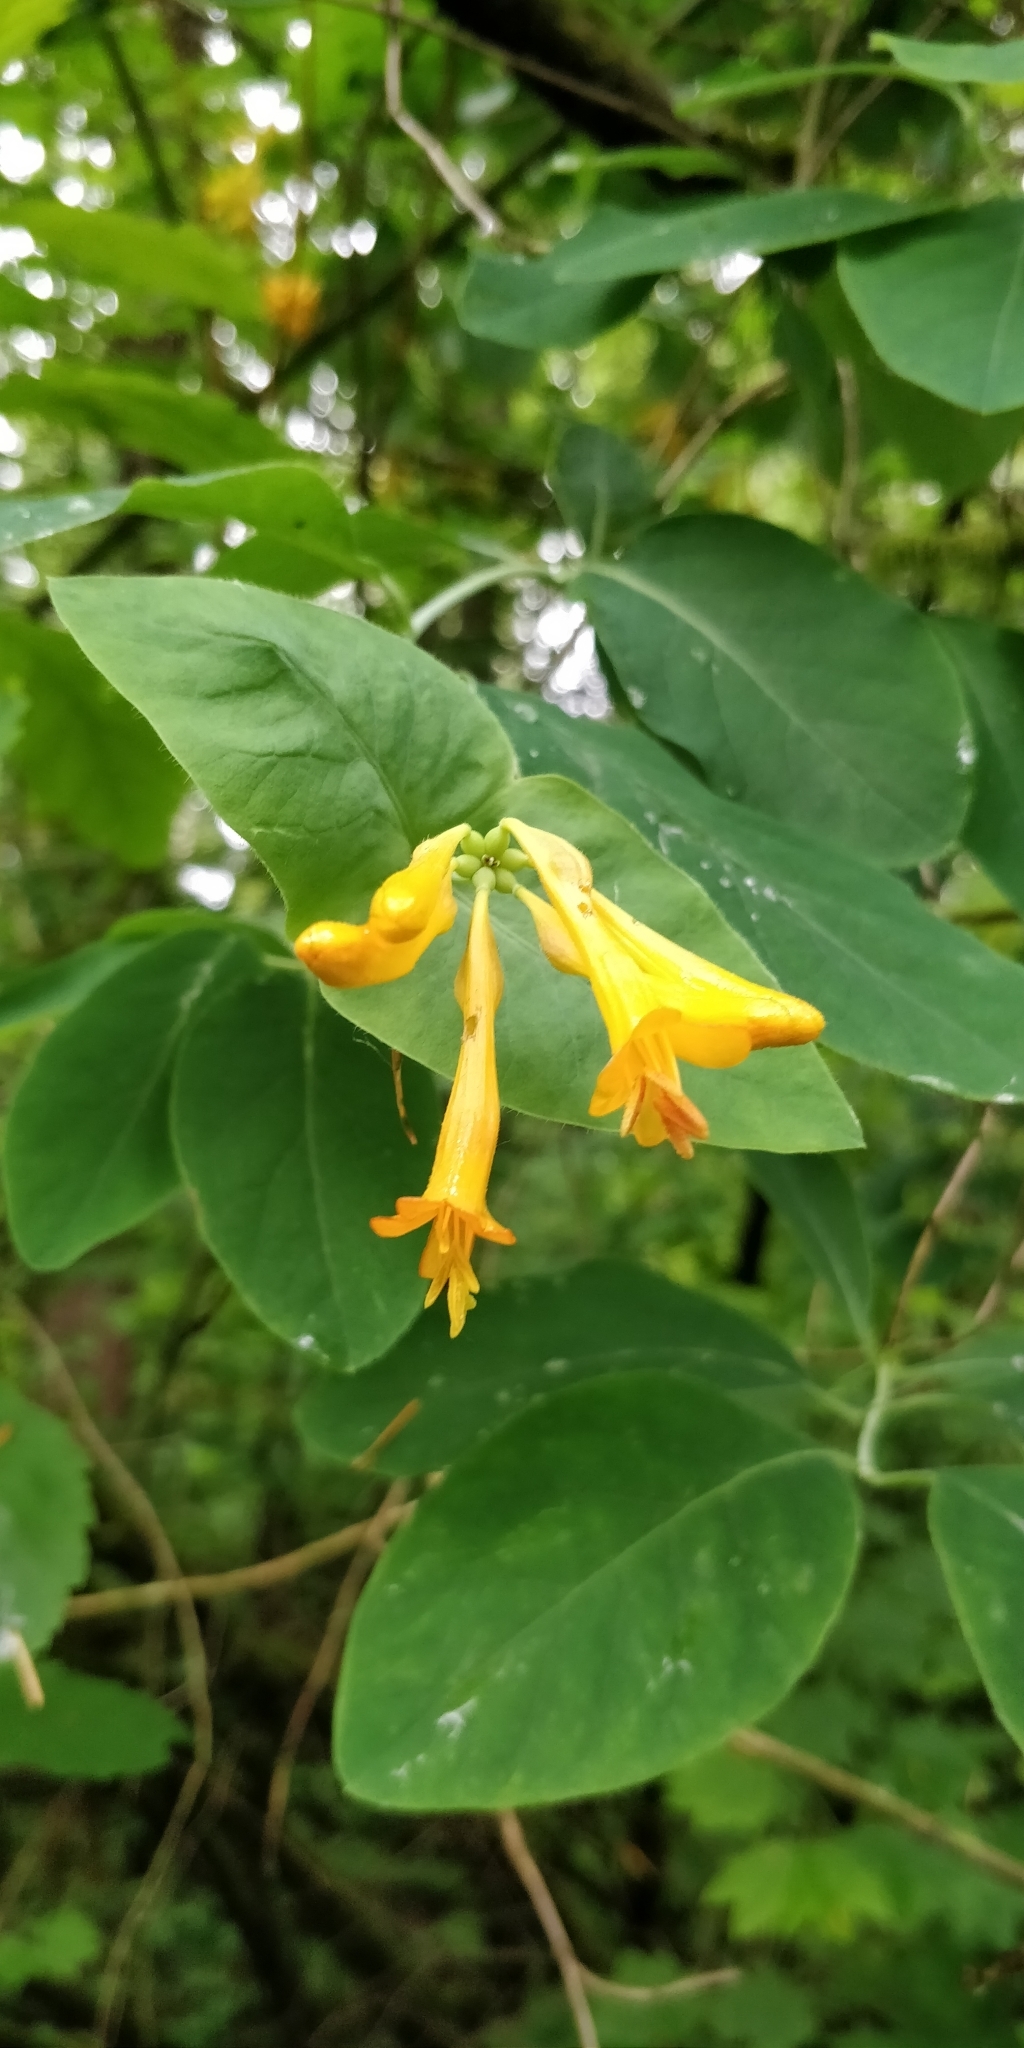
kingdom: Plantae
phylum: Tracheophyta
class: Magnoliopsida
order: Dipsacales
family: Caprifoliaceae
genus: Lonicera
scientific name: Lonicera ciliosa
